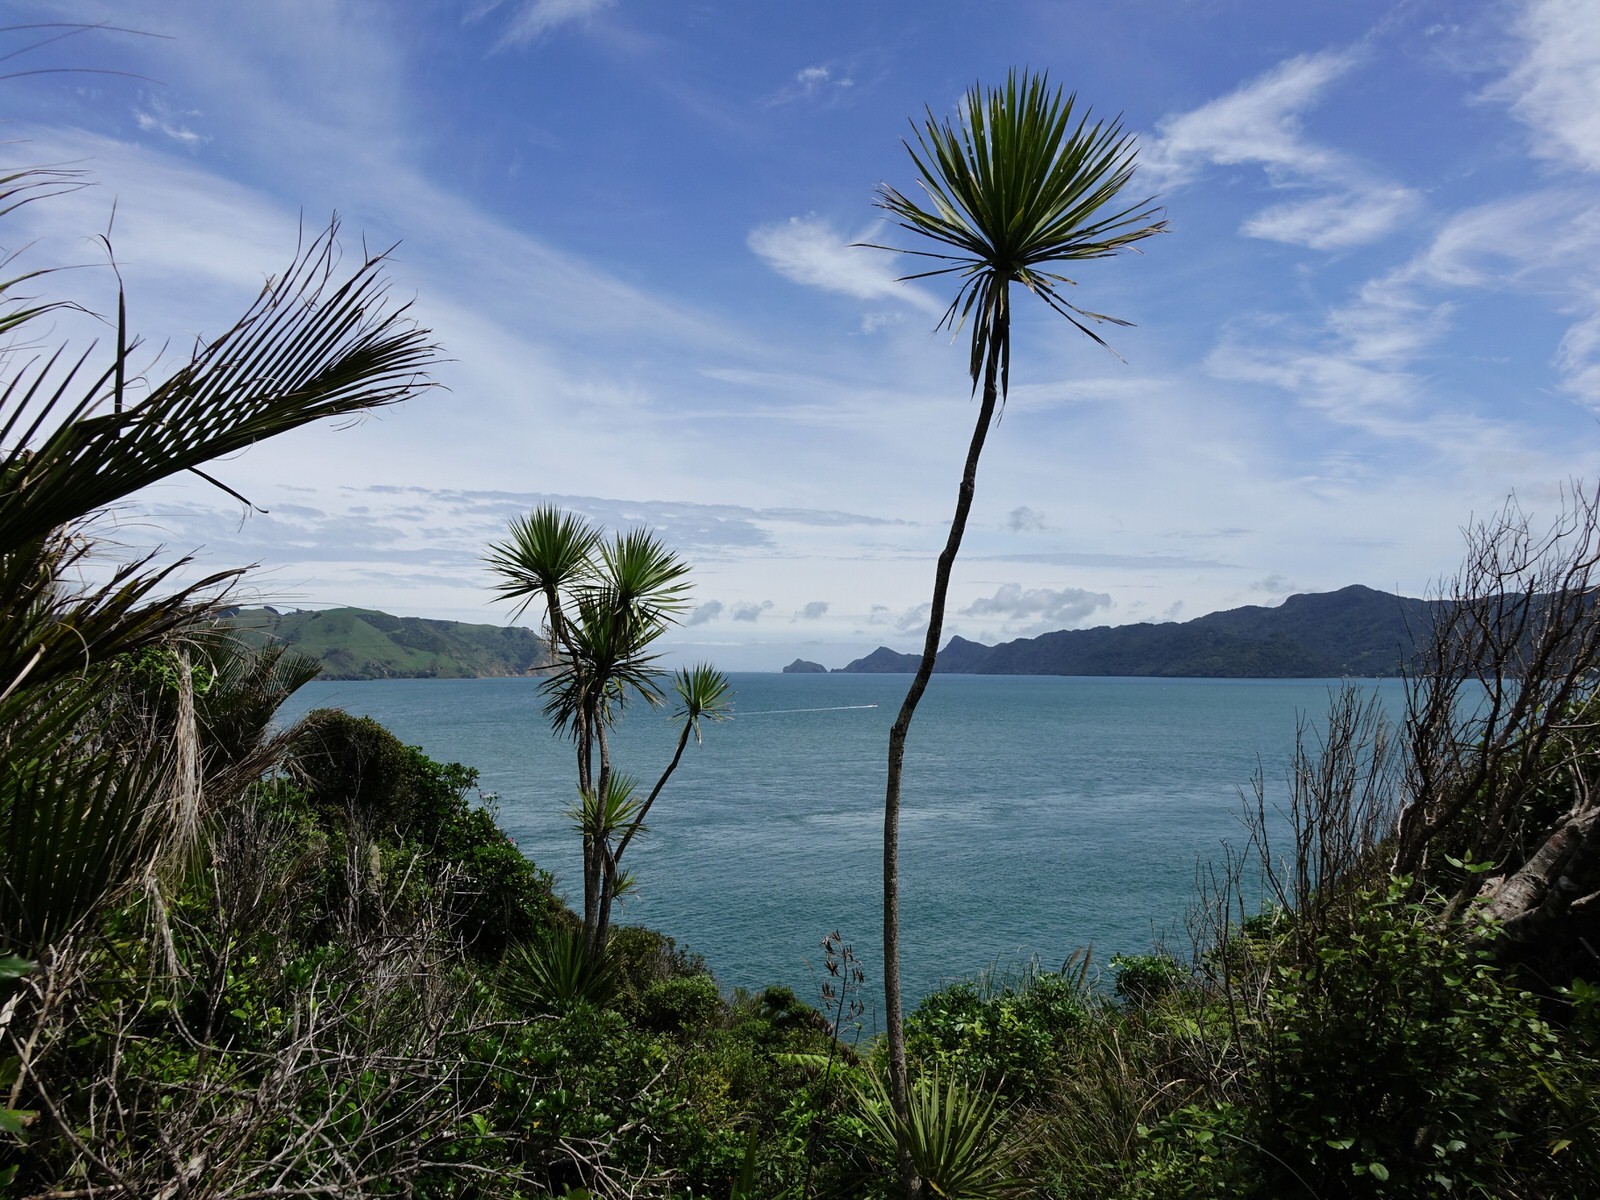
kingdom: Plantae
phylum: Tracheophyta
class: Liliopsida
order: Asparagales
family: Asparagaceae
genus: Cordyline
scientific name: Cordyline australis
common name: Cabbage-palm
